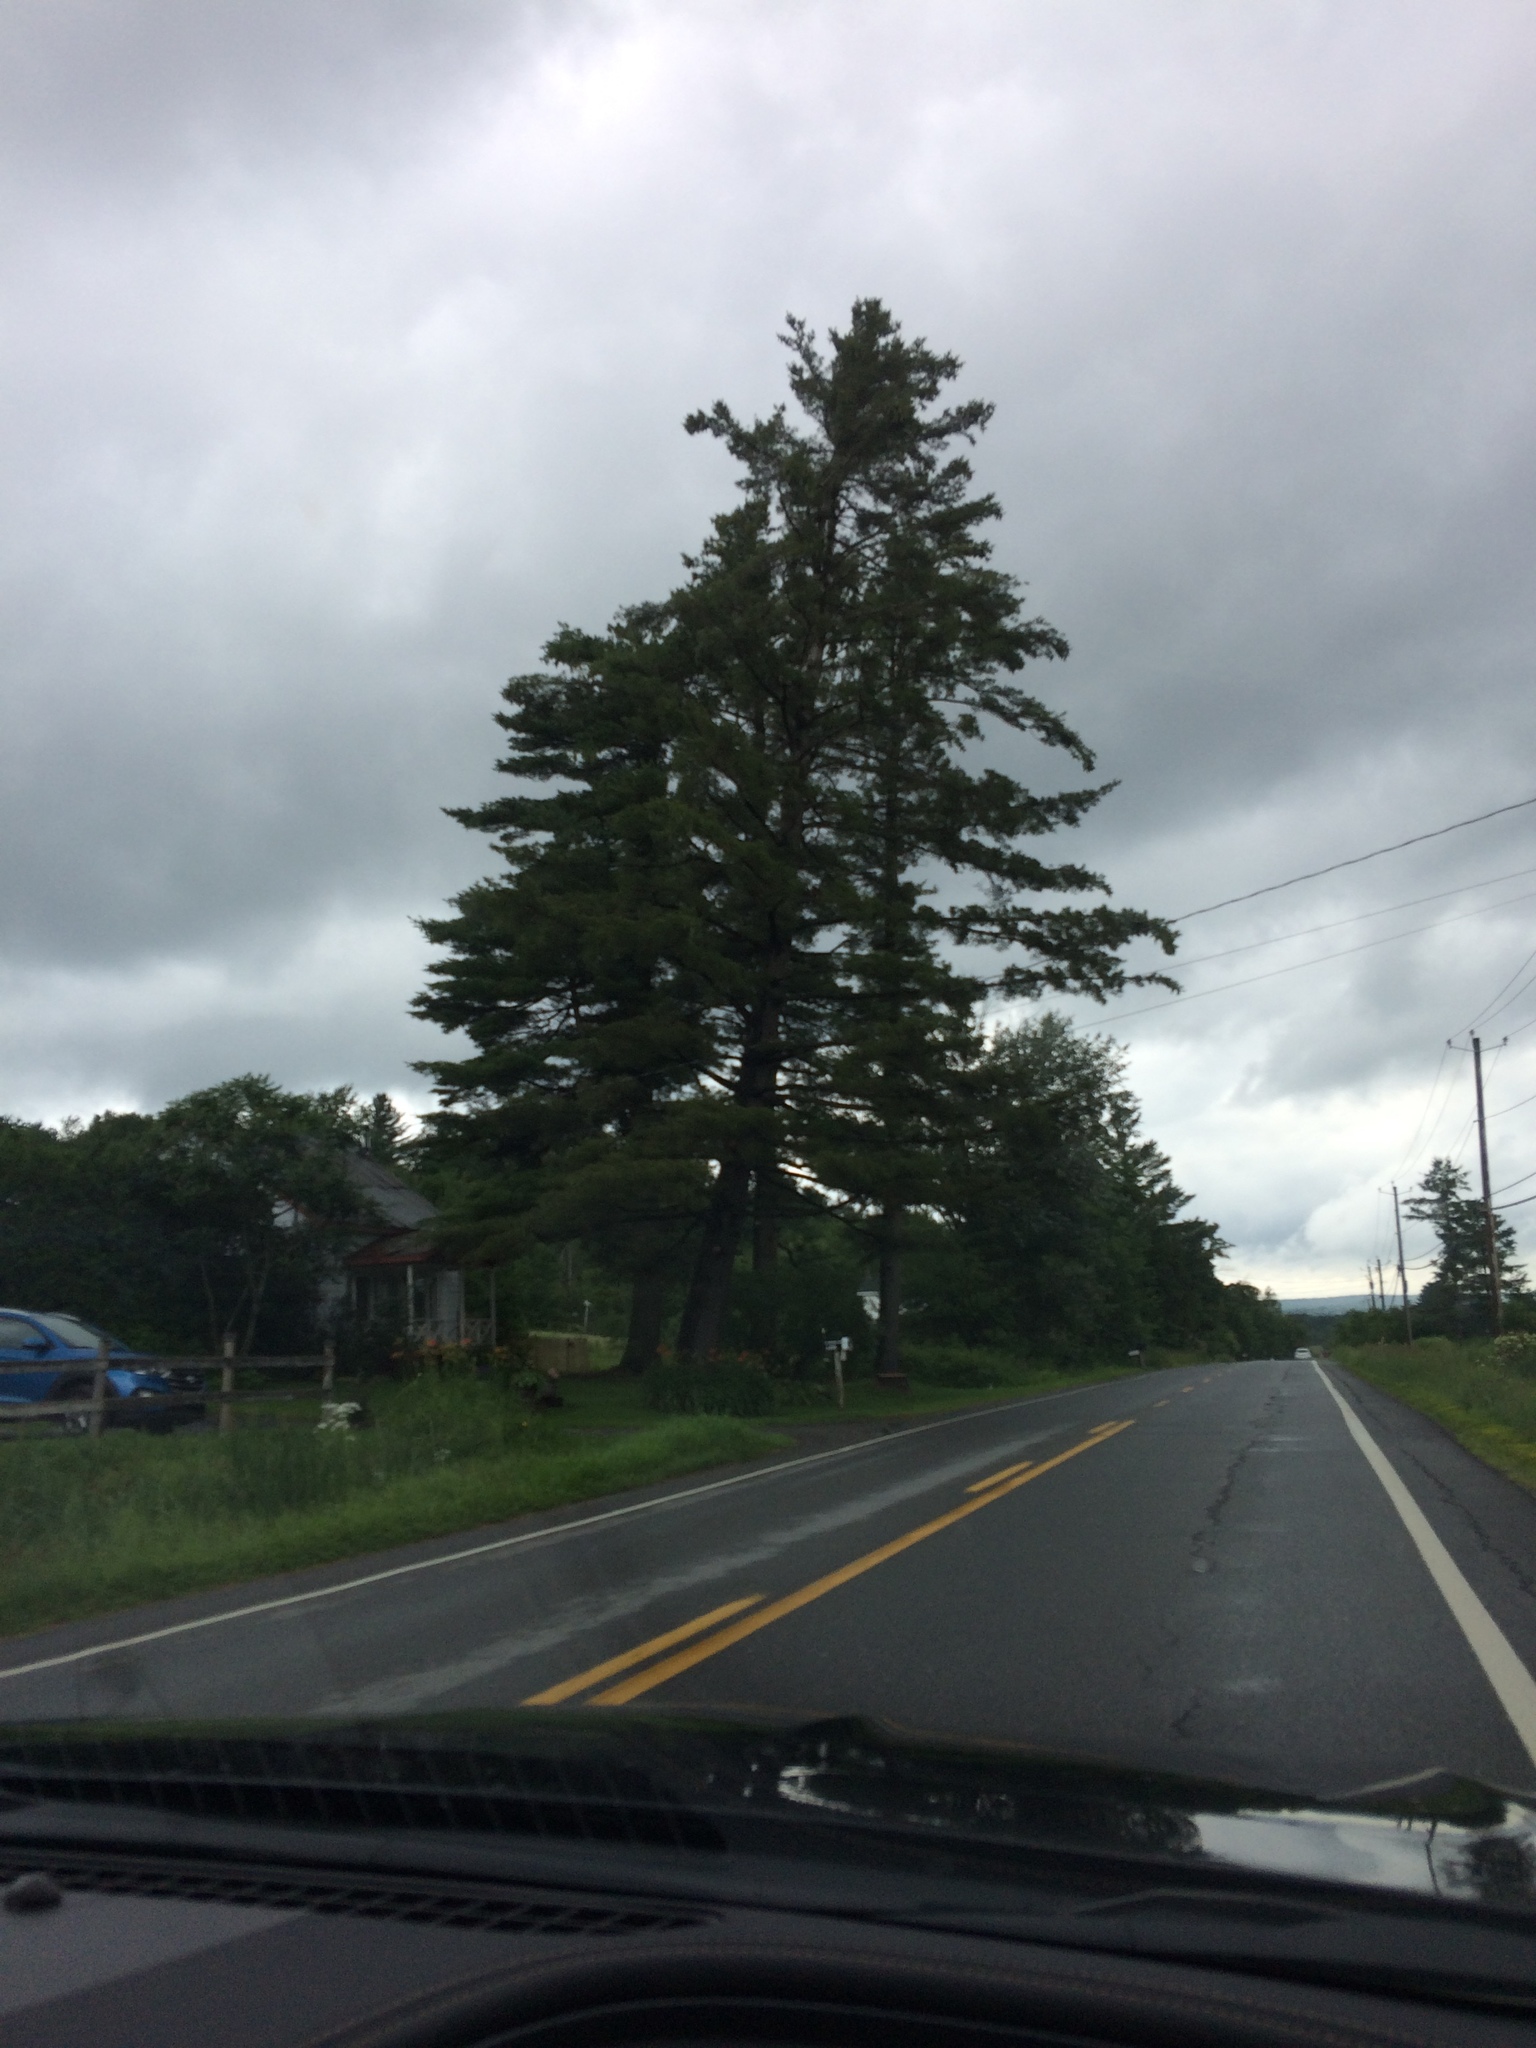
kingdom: Plantae
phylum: Tracheophyta
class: Pinopsida
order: Pinales
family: Pinaceae
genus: Pinus
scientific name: Pinus strobus
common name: Weymouth pine
